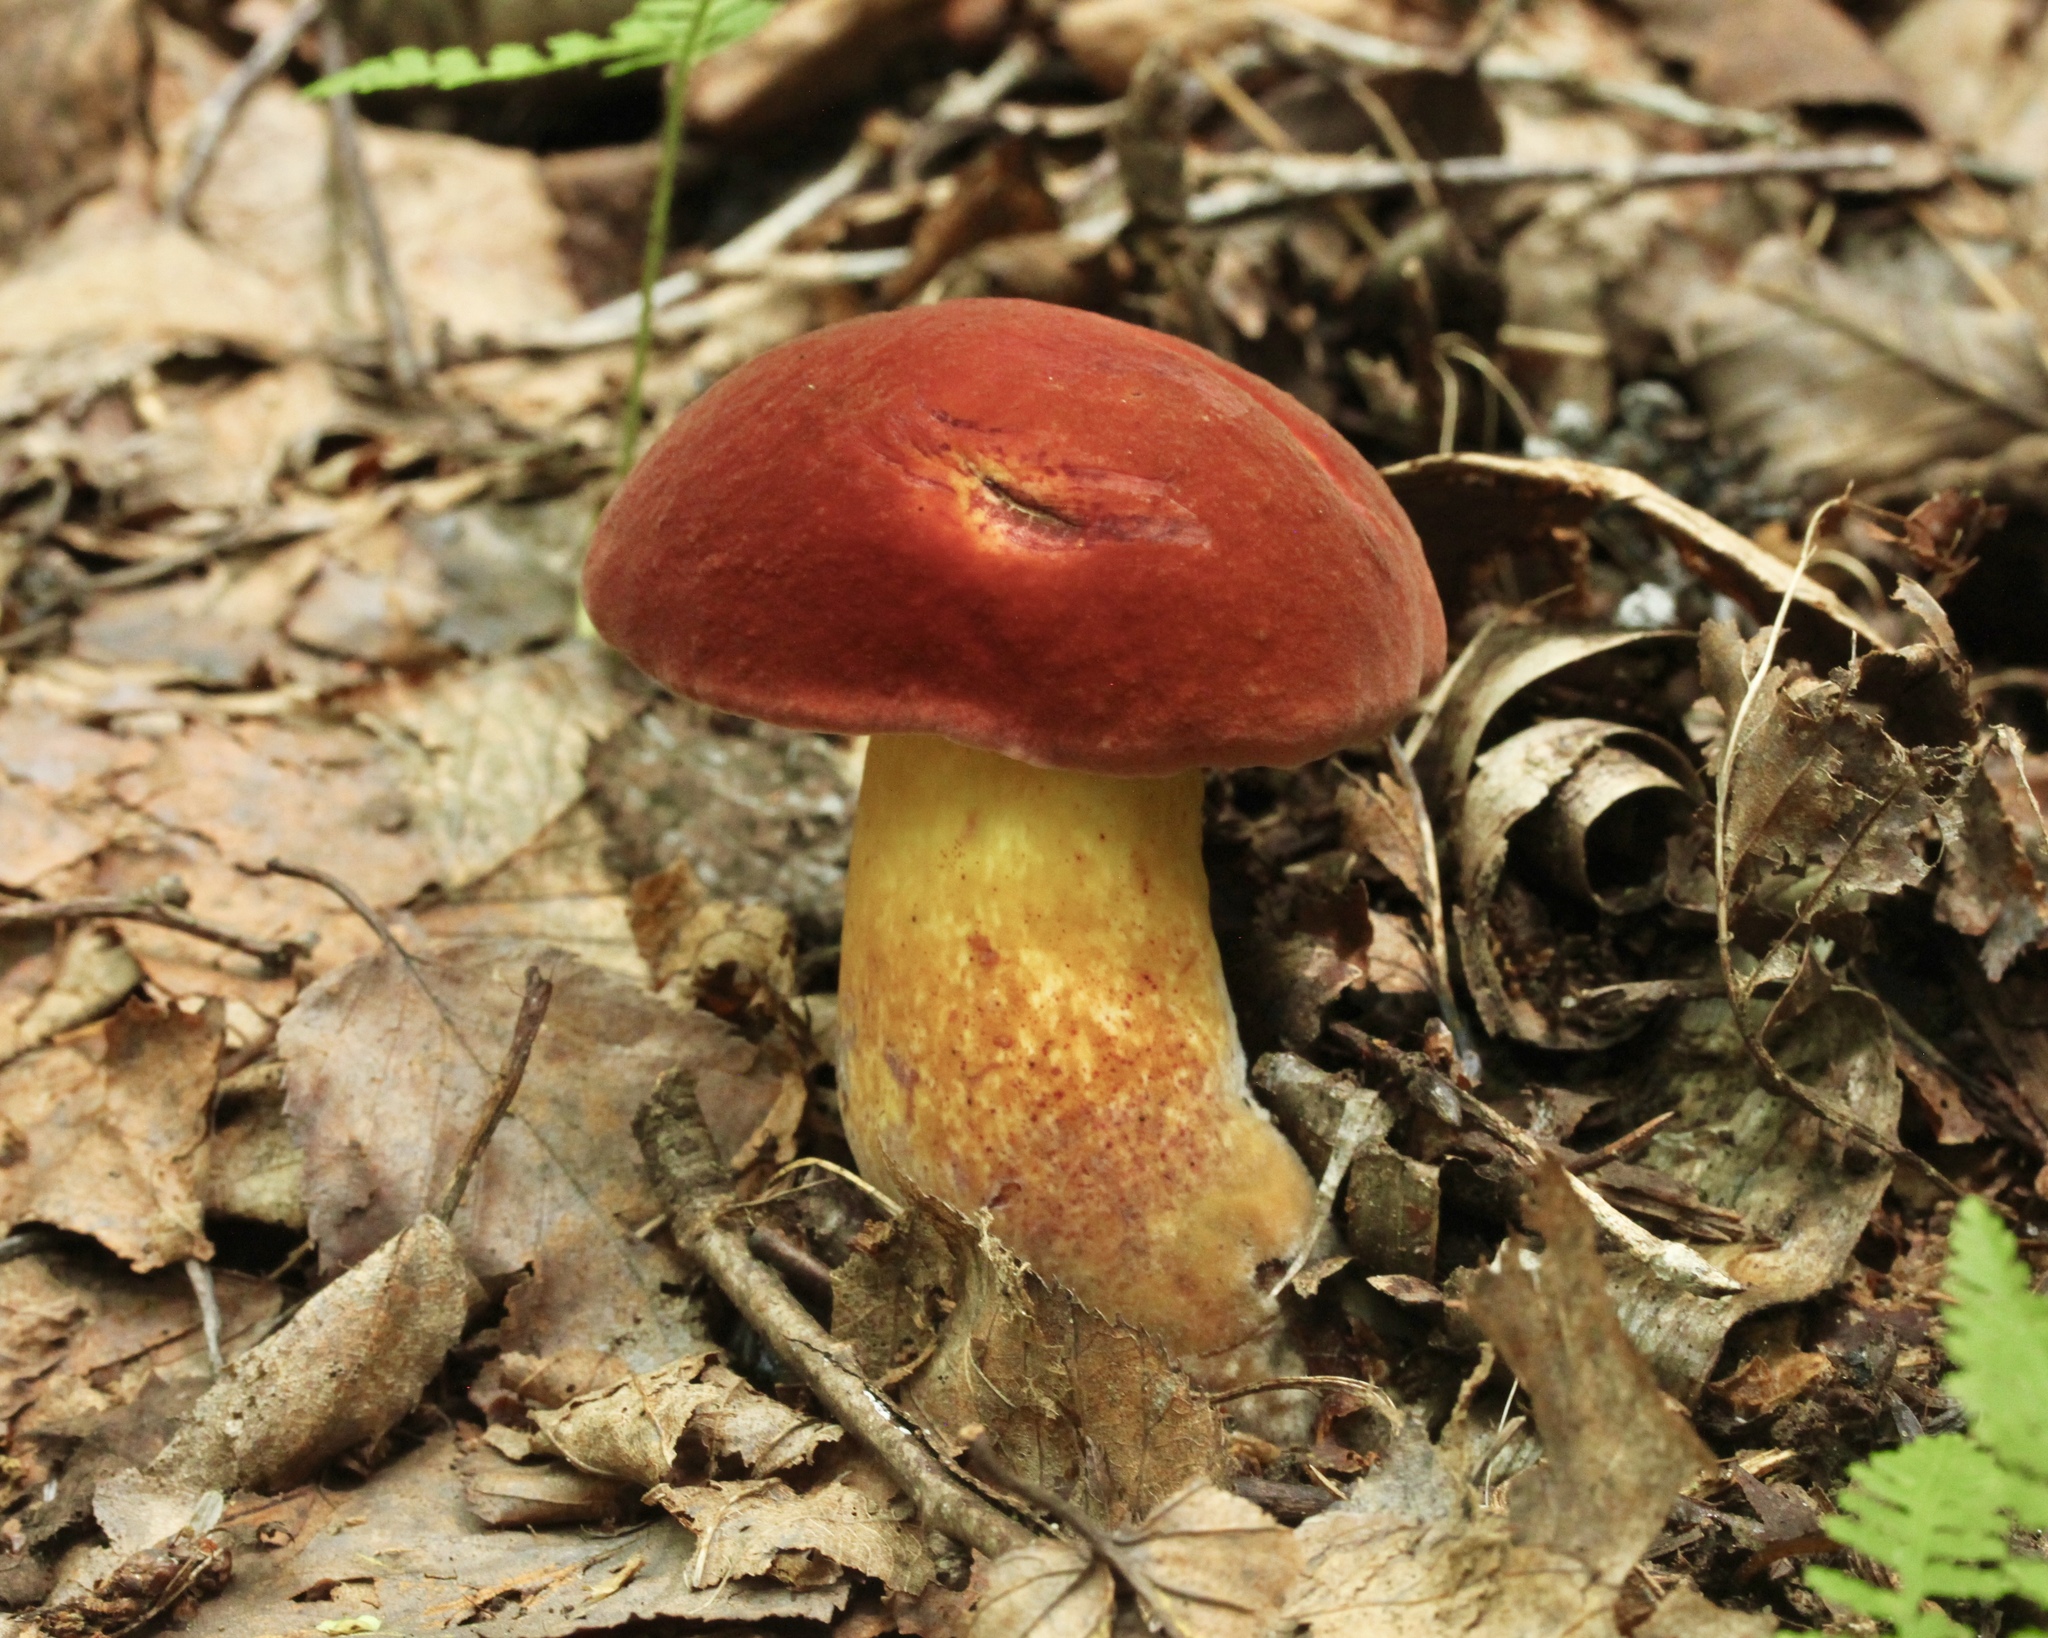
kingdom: Fungi
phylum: Basidiomycota
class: Agaricomycetes
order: Boletales
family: Boletaceae
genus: Boletus
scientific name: Boletus subvelutipes
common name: Red-mouth bolete
